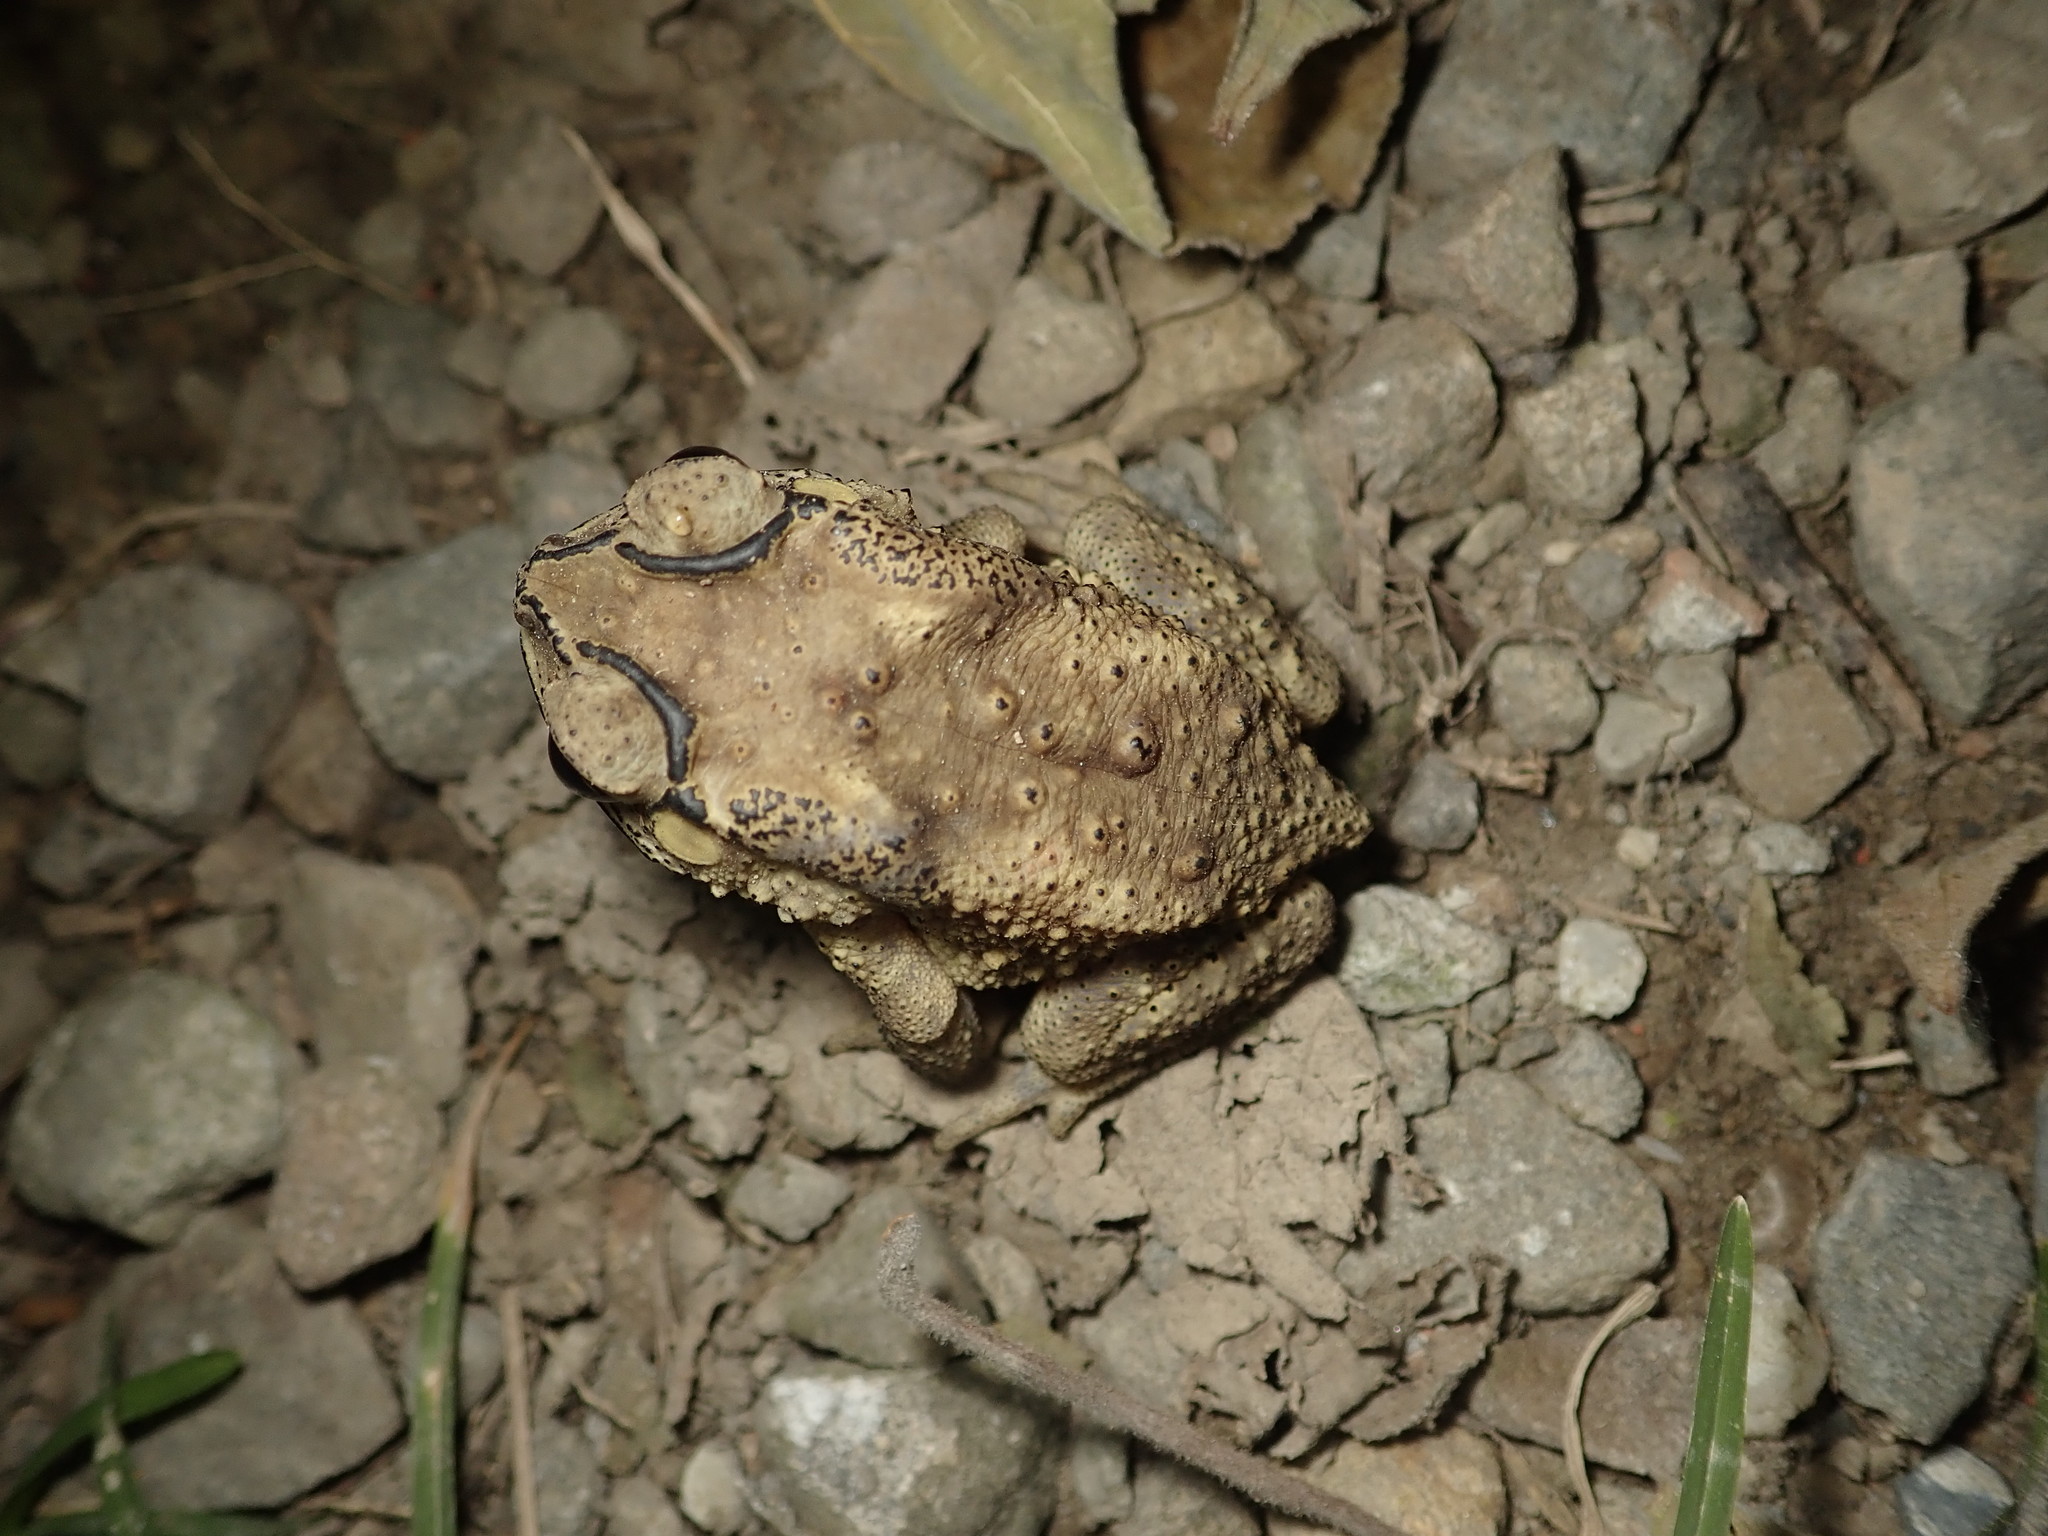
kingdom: Animalia
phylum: Chordata
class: Amphibia
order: Anura
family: Bufonidae
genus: Duttaphrynus
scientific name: Duttaphrynus melanostictus
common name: Common sunda toad
